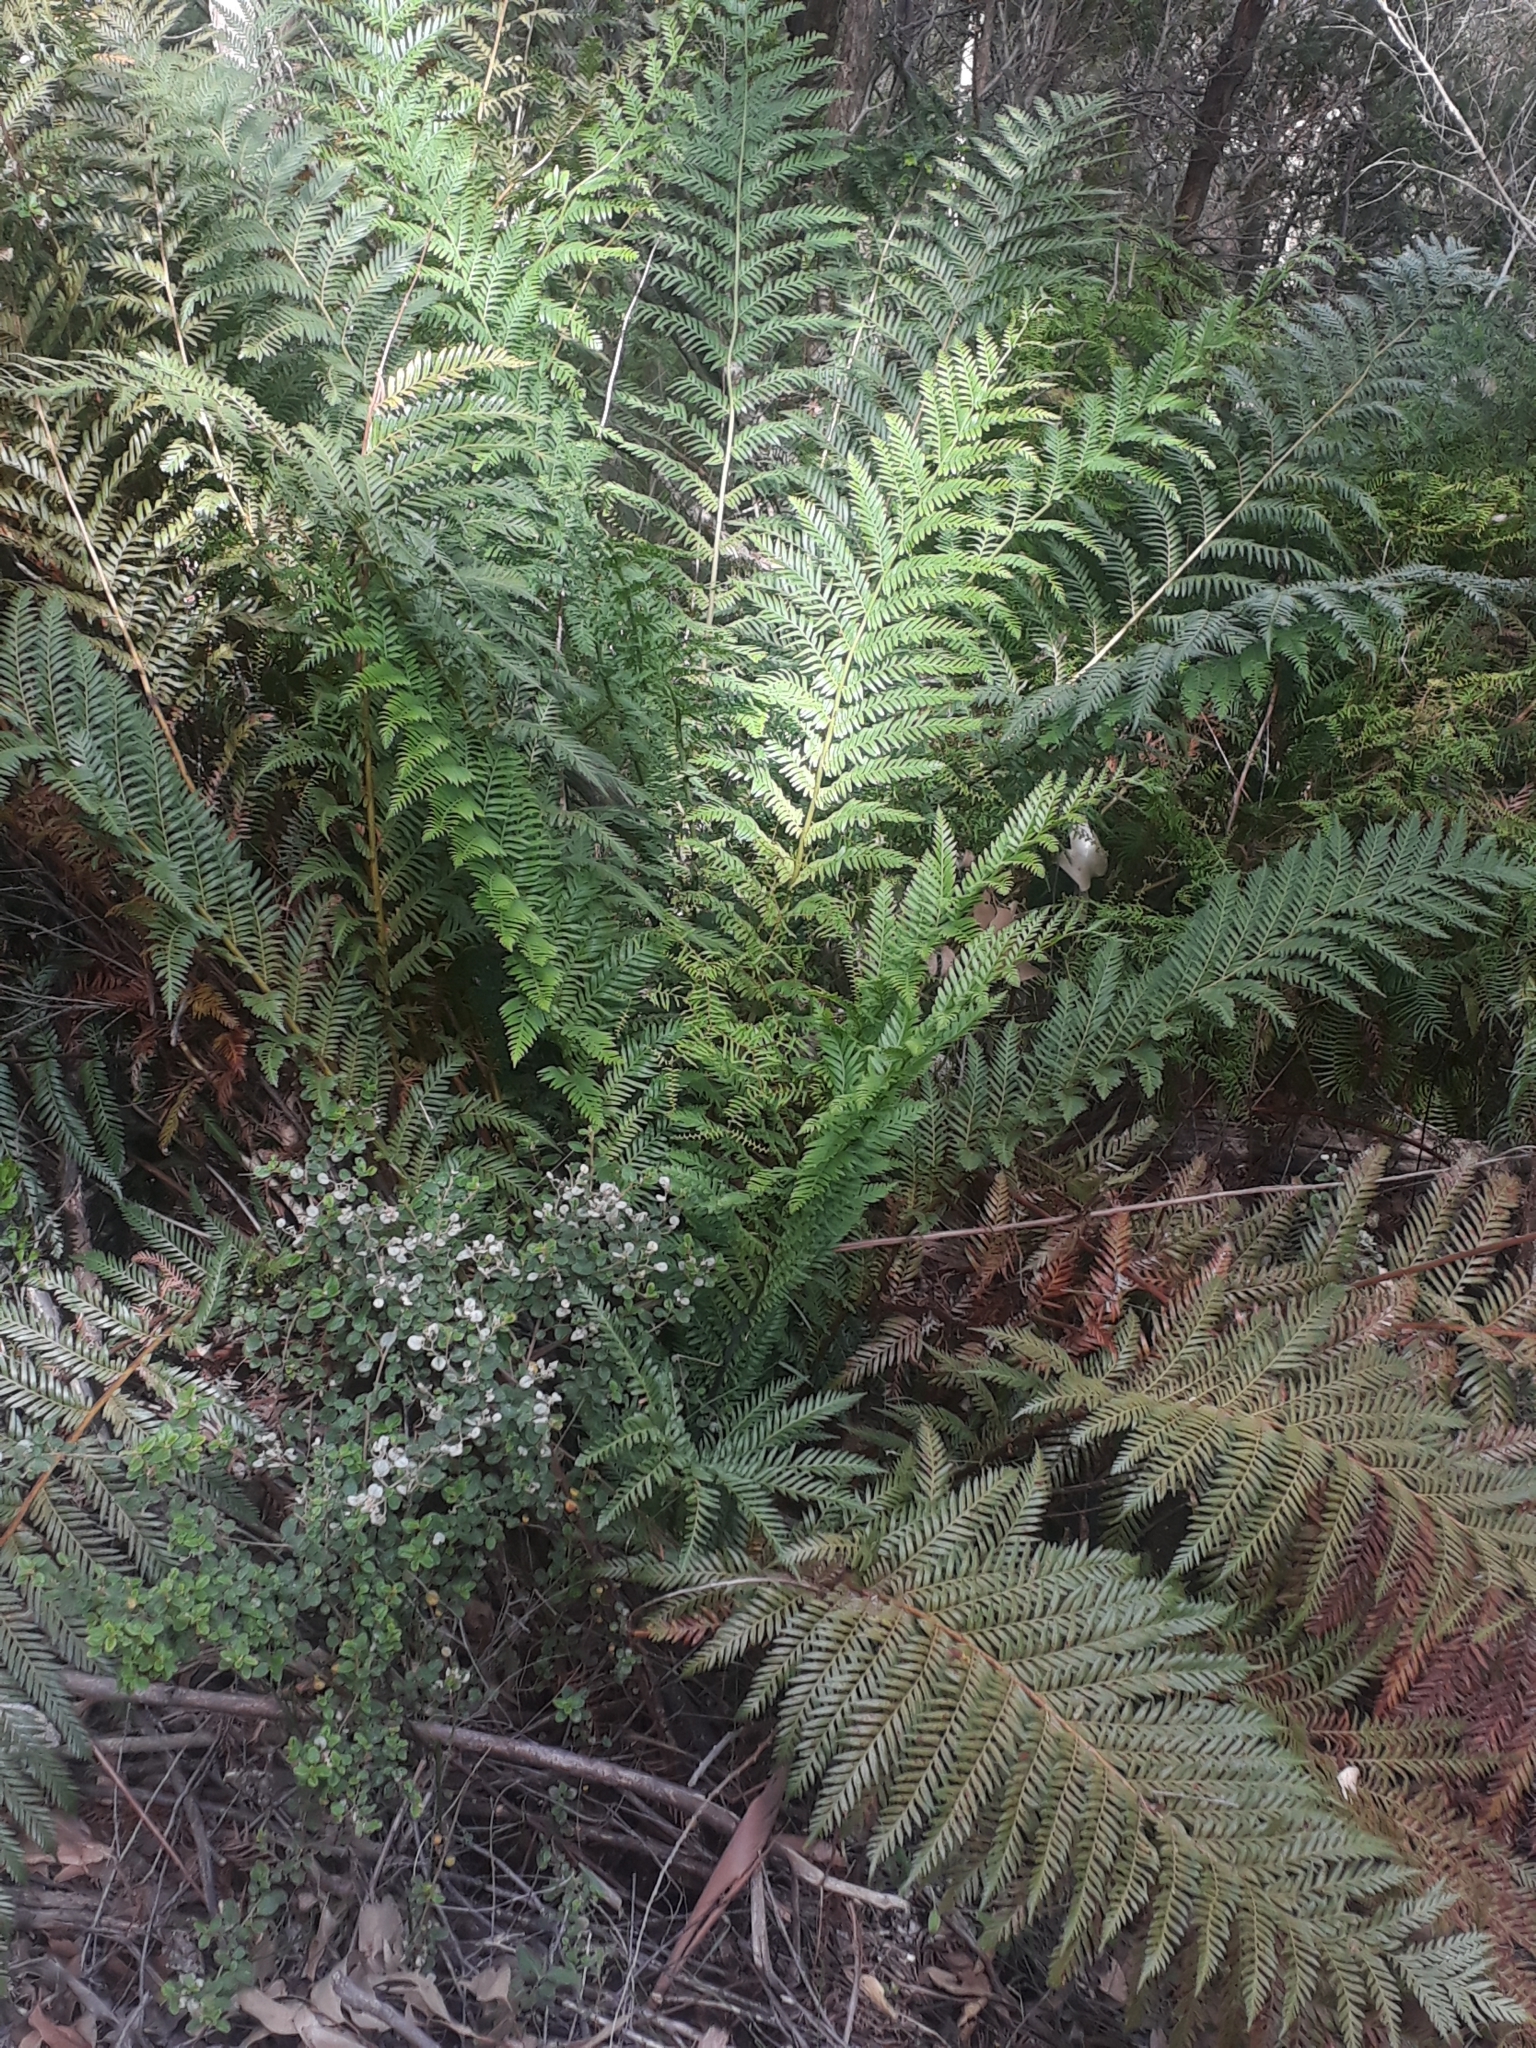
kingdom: Plantae
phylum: Tracheophyta
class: Polypodiopsida
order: Osmundales
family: Osmundaceae
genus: Todea
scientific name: Todea barbara
